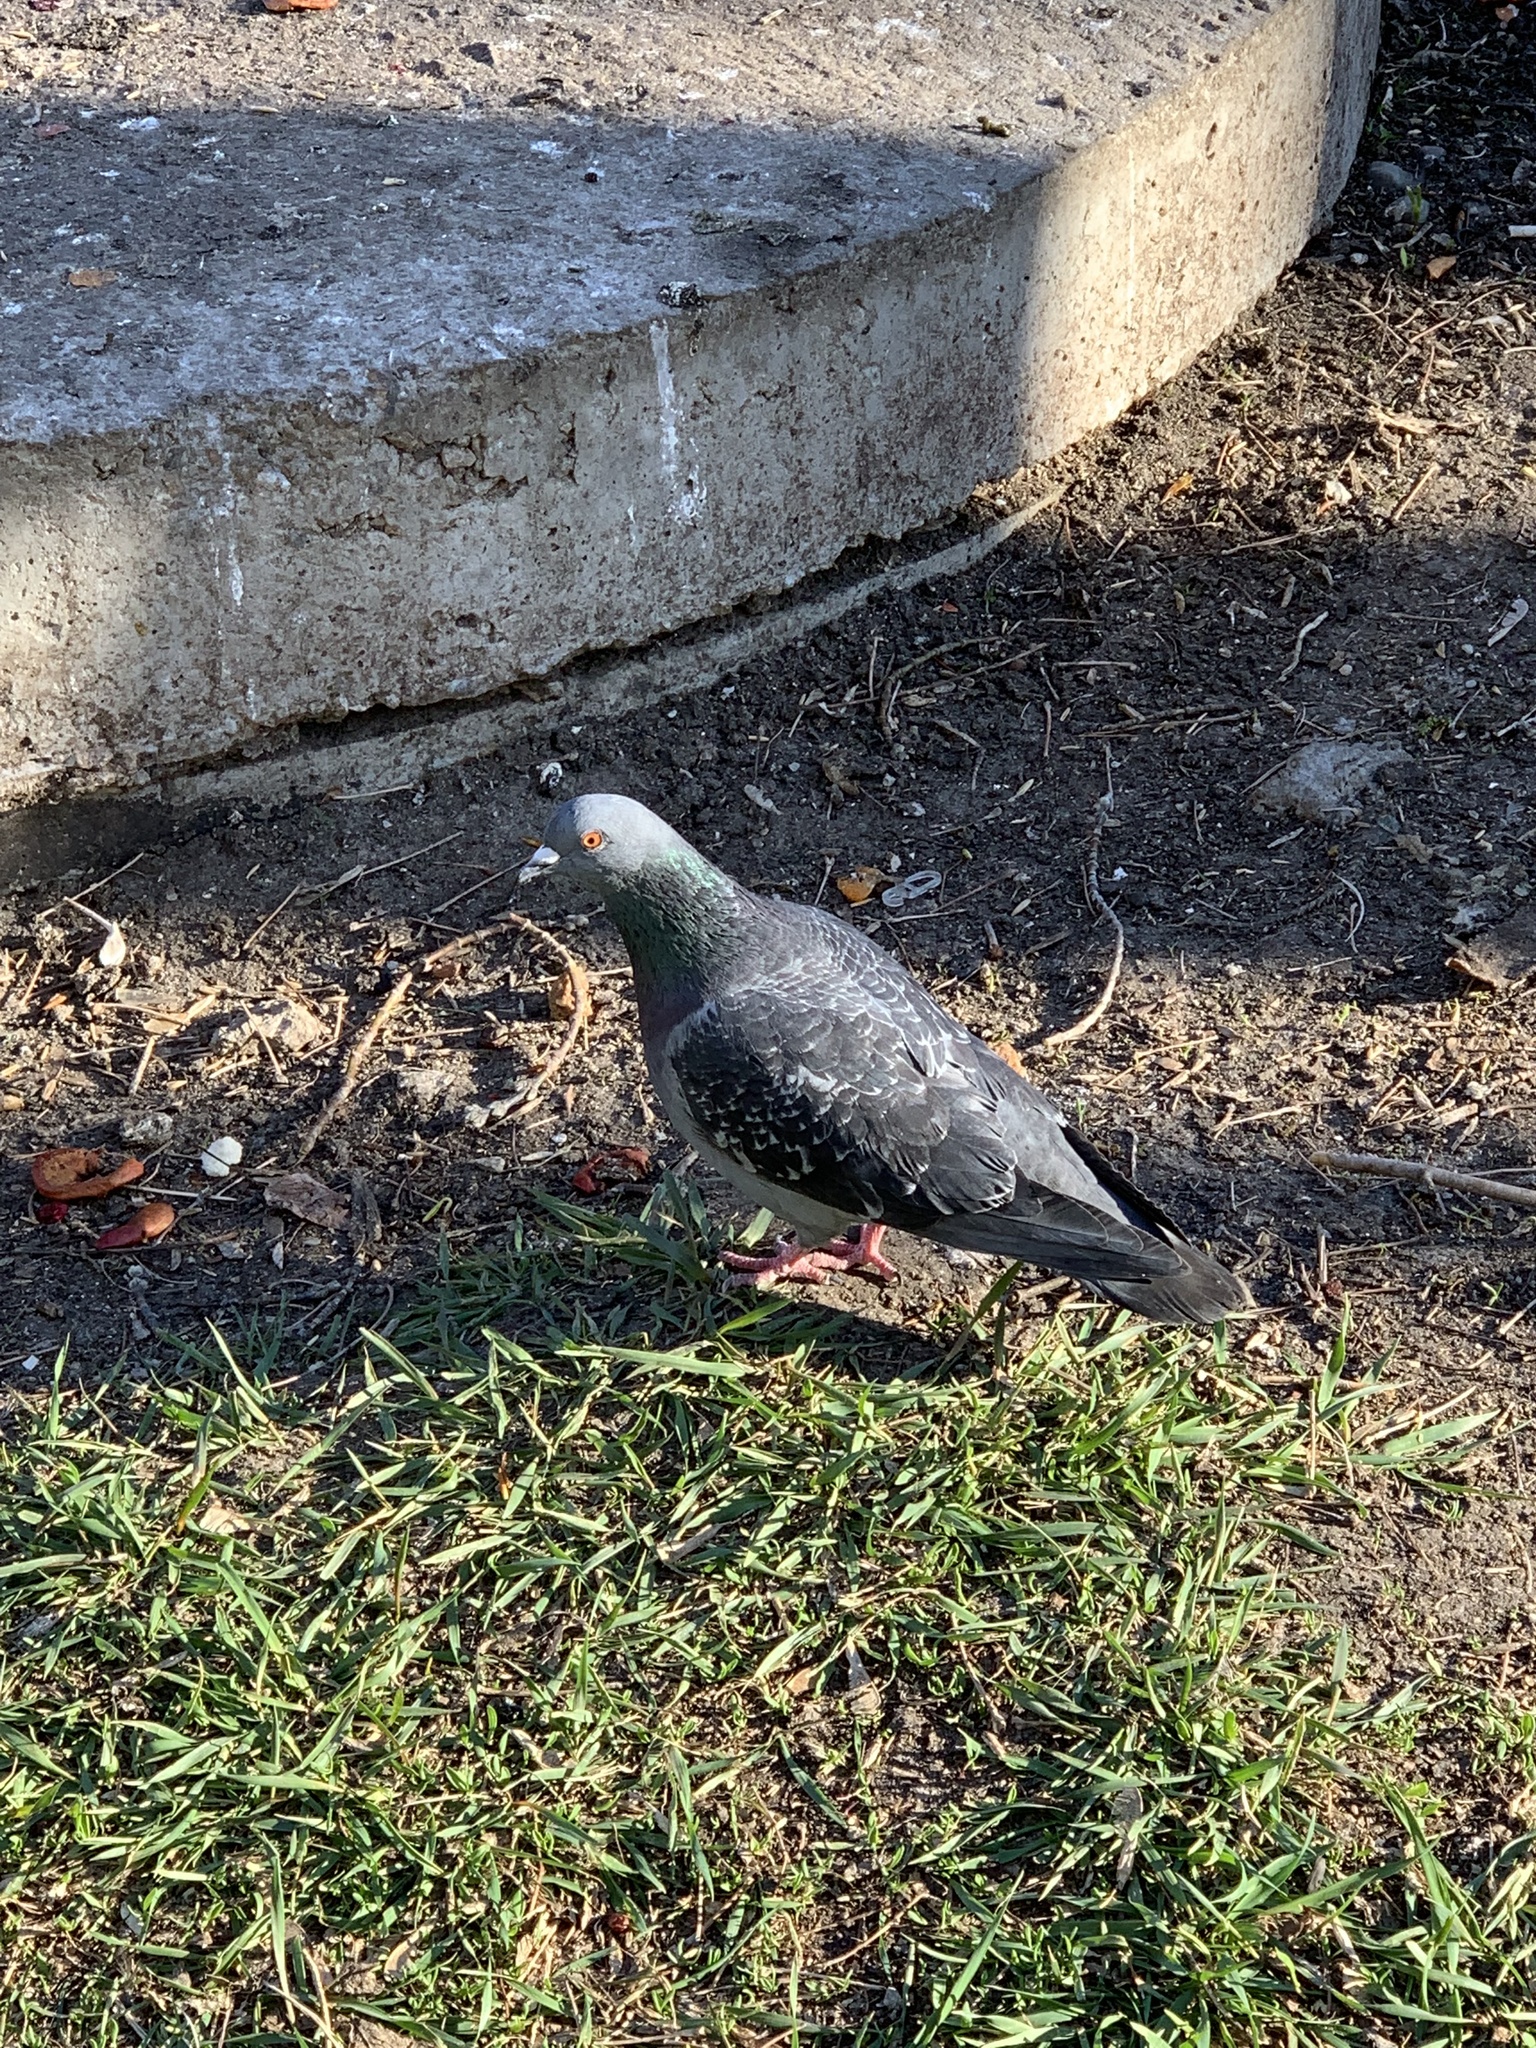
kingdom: Animalia
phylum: Chordata
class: Aves
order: Columbiformes
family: Columbidae
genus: Columba
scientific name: Columba livia
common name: Rock pigeon
